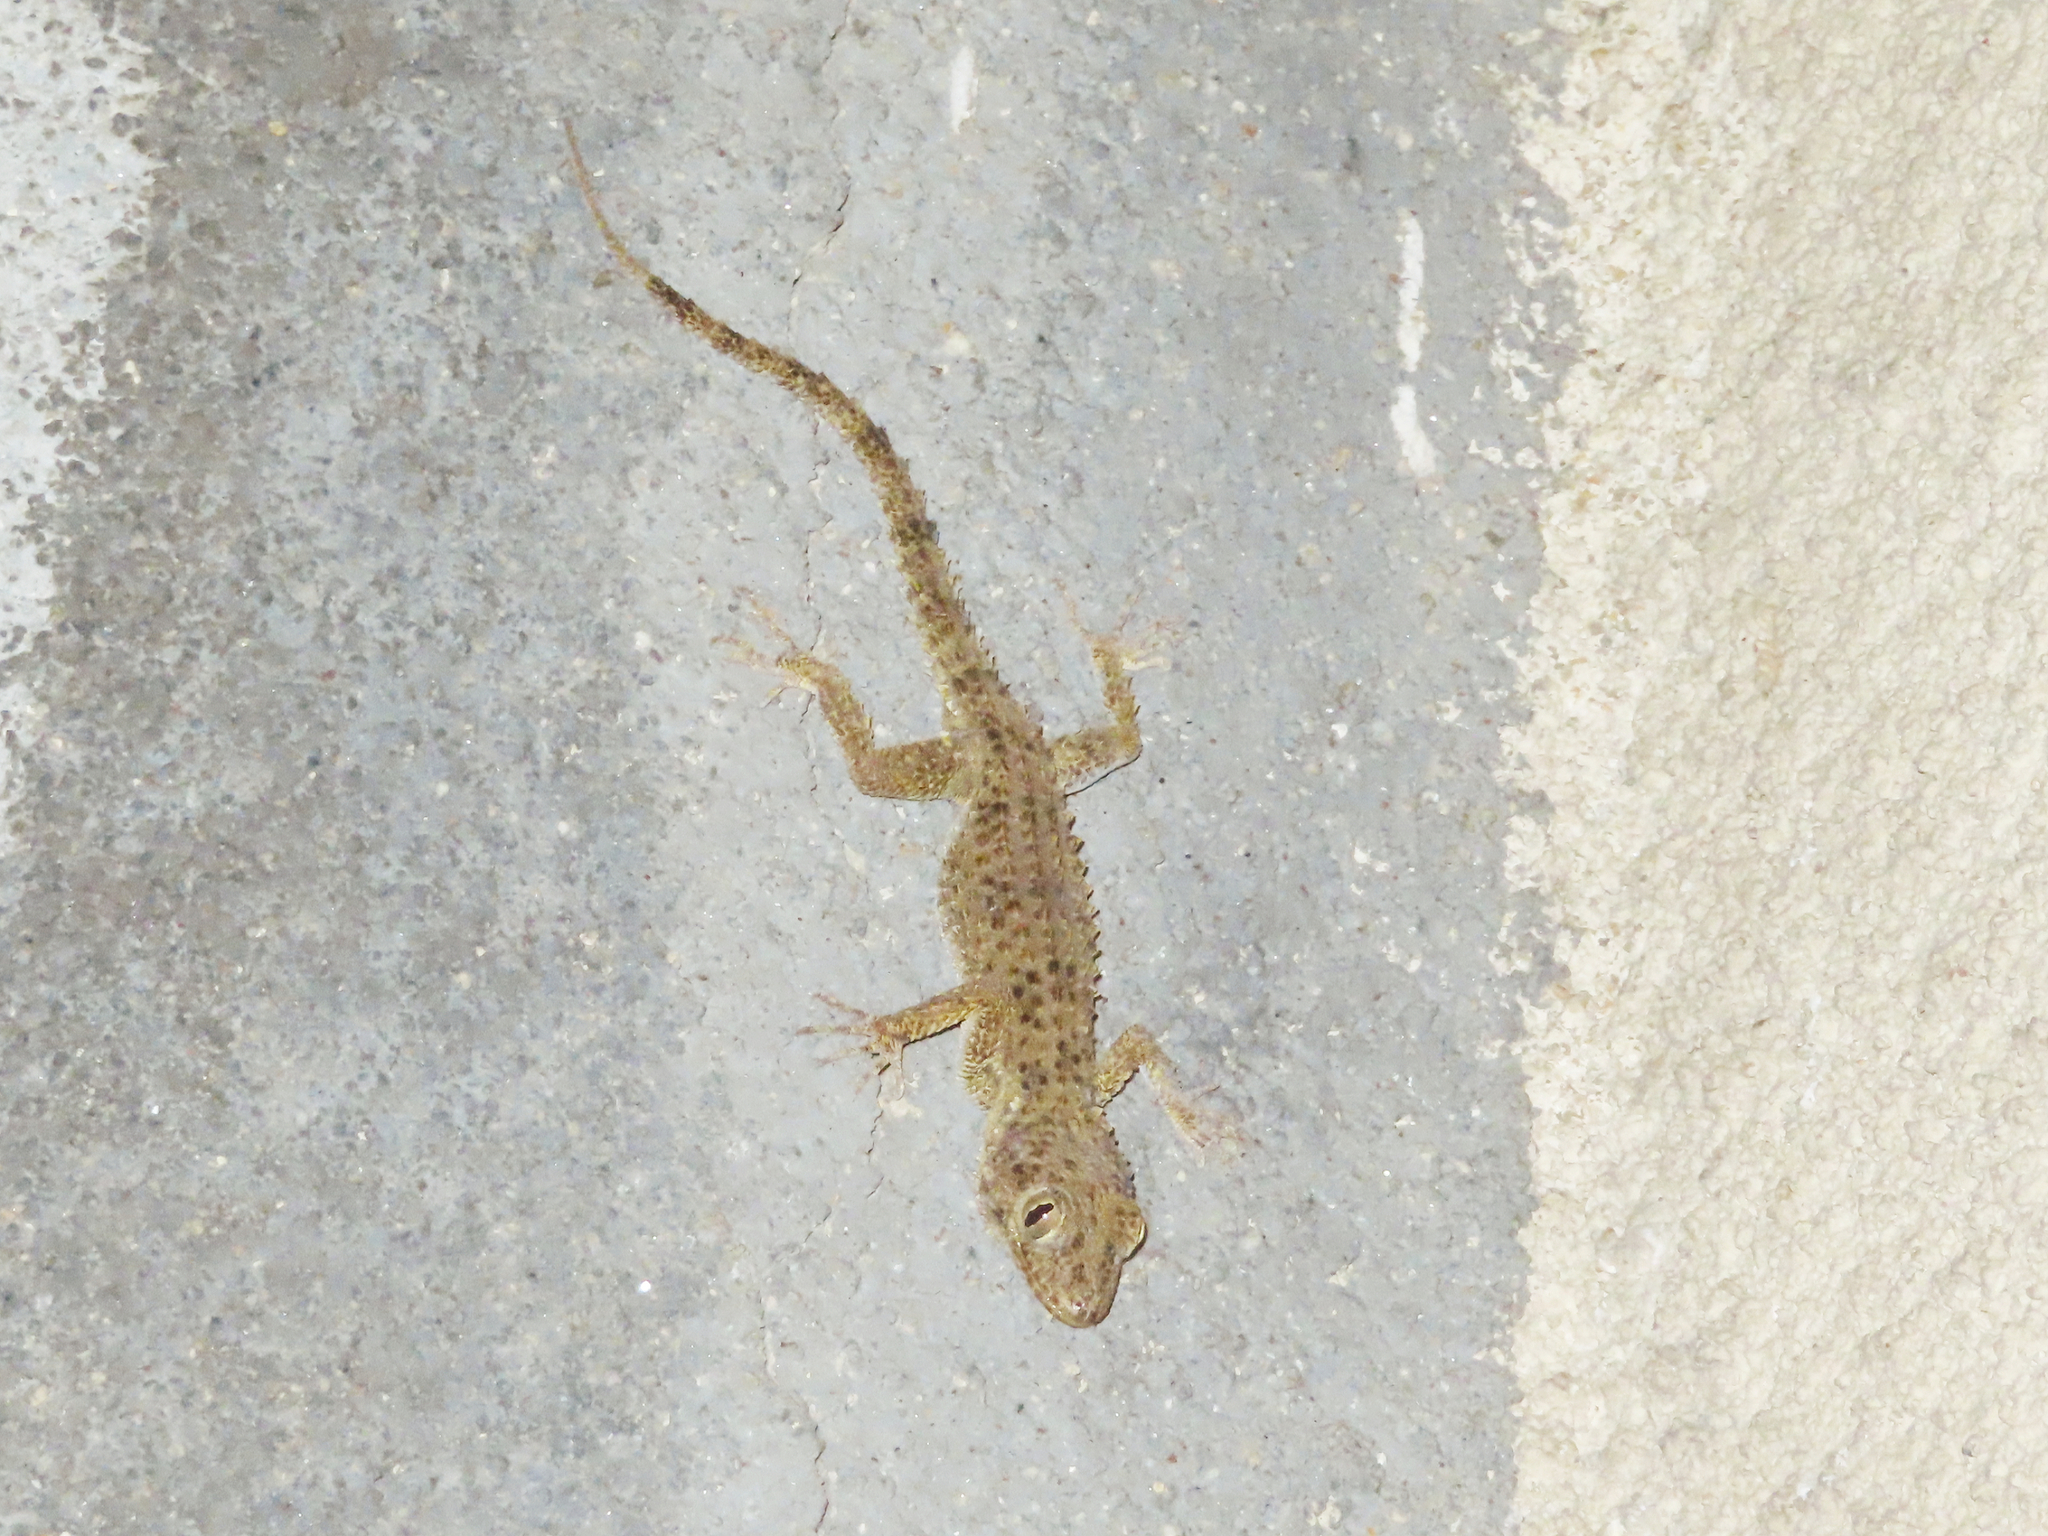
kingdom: Animalia
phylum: Chordata
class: Squamata
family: Gekkonidae
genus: Tenuidactylus
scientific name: Tenuidactylus caspius
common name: Caspian bent-toed gecko
